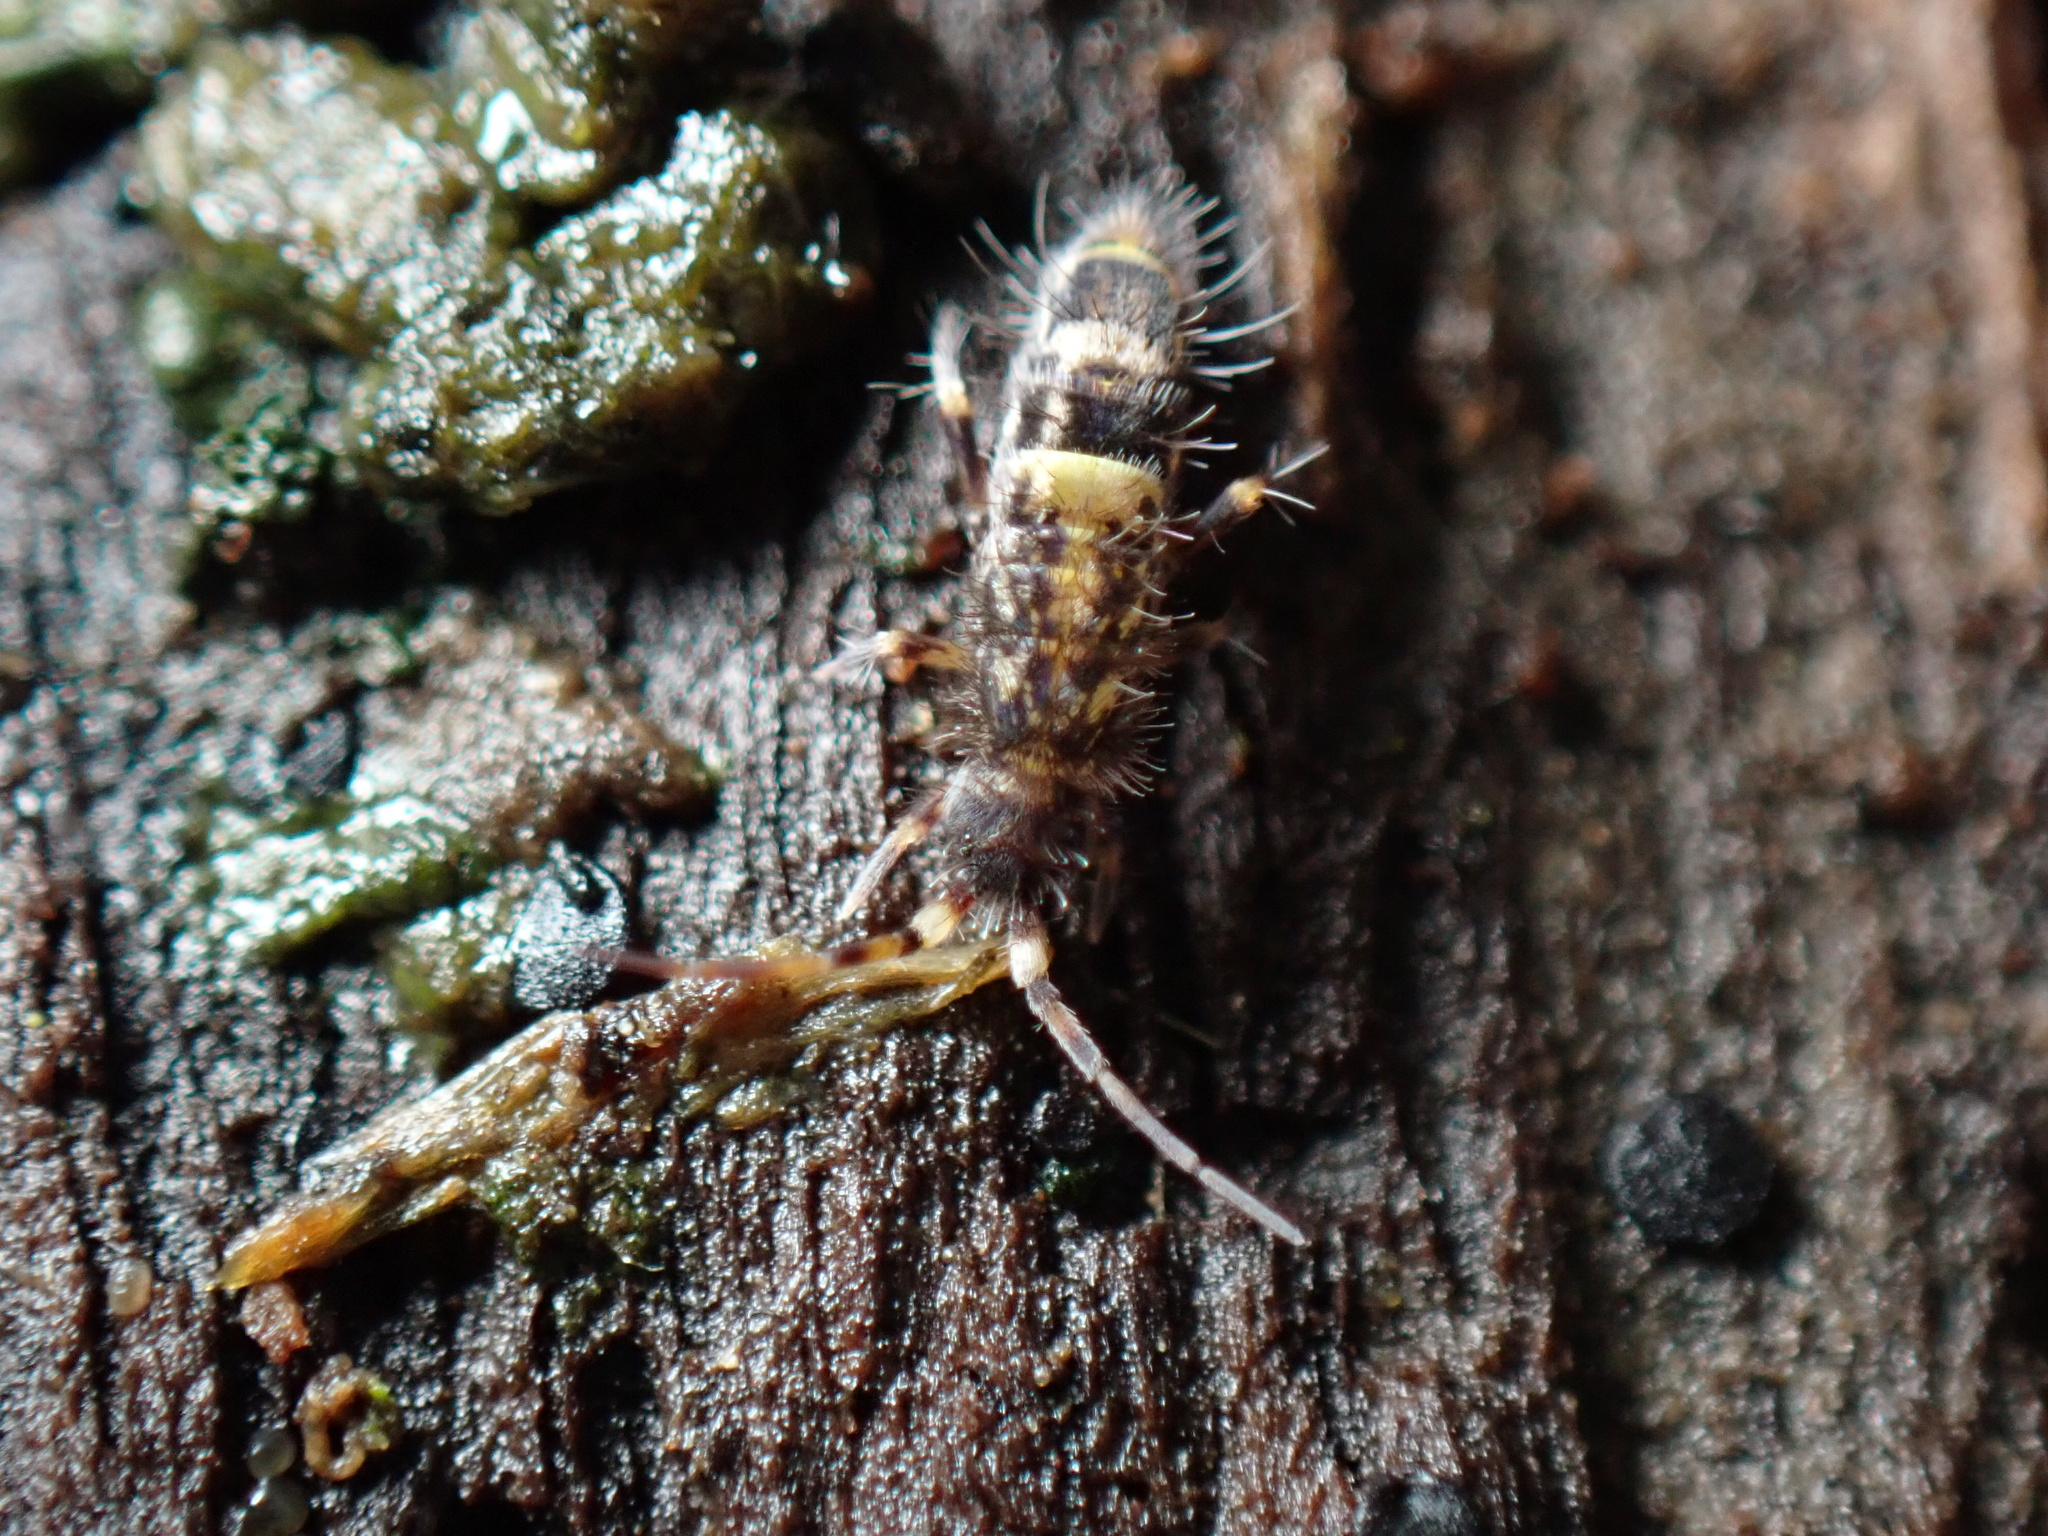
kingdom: Animalia
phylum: Arthropoda
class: Collembola
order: Entomobryomorpha
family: Orchesellidae
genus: Orchesella
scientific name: Orchesella cincta
